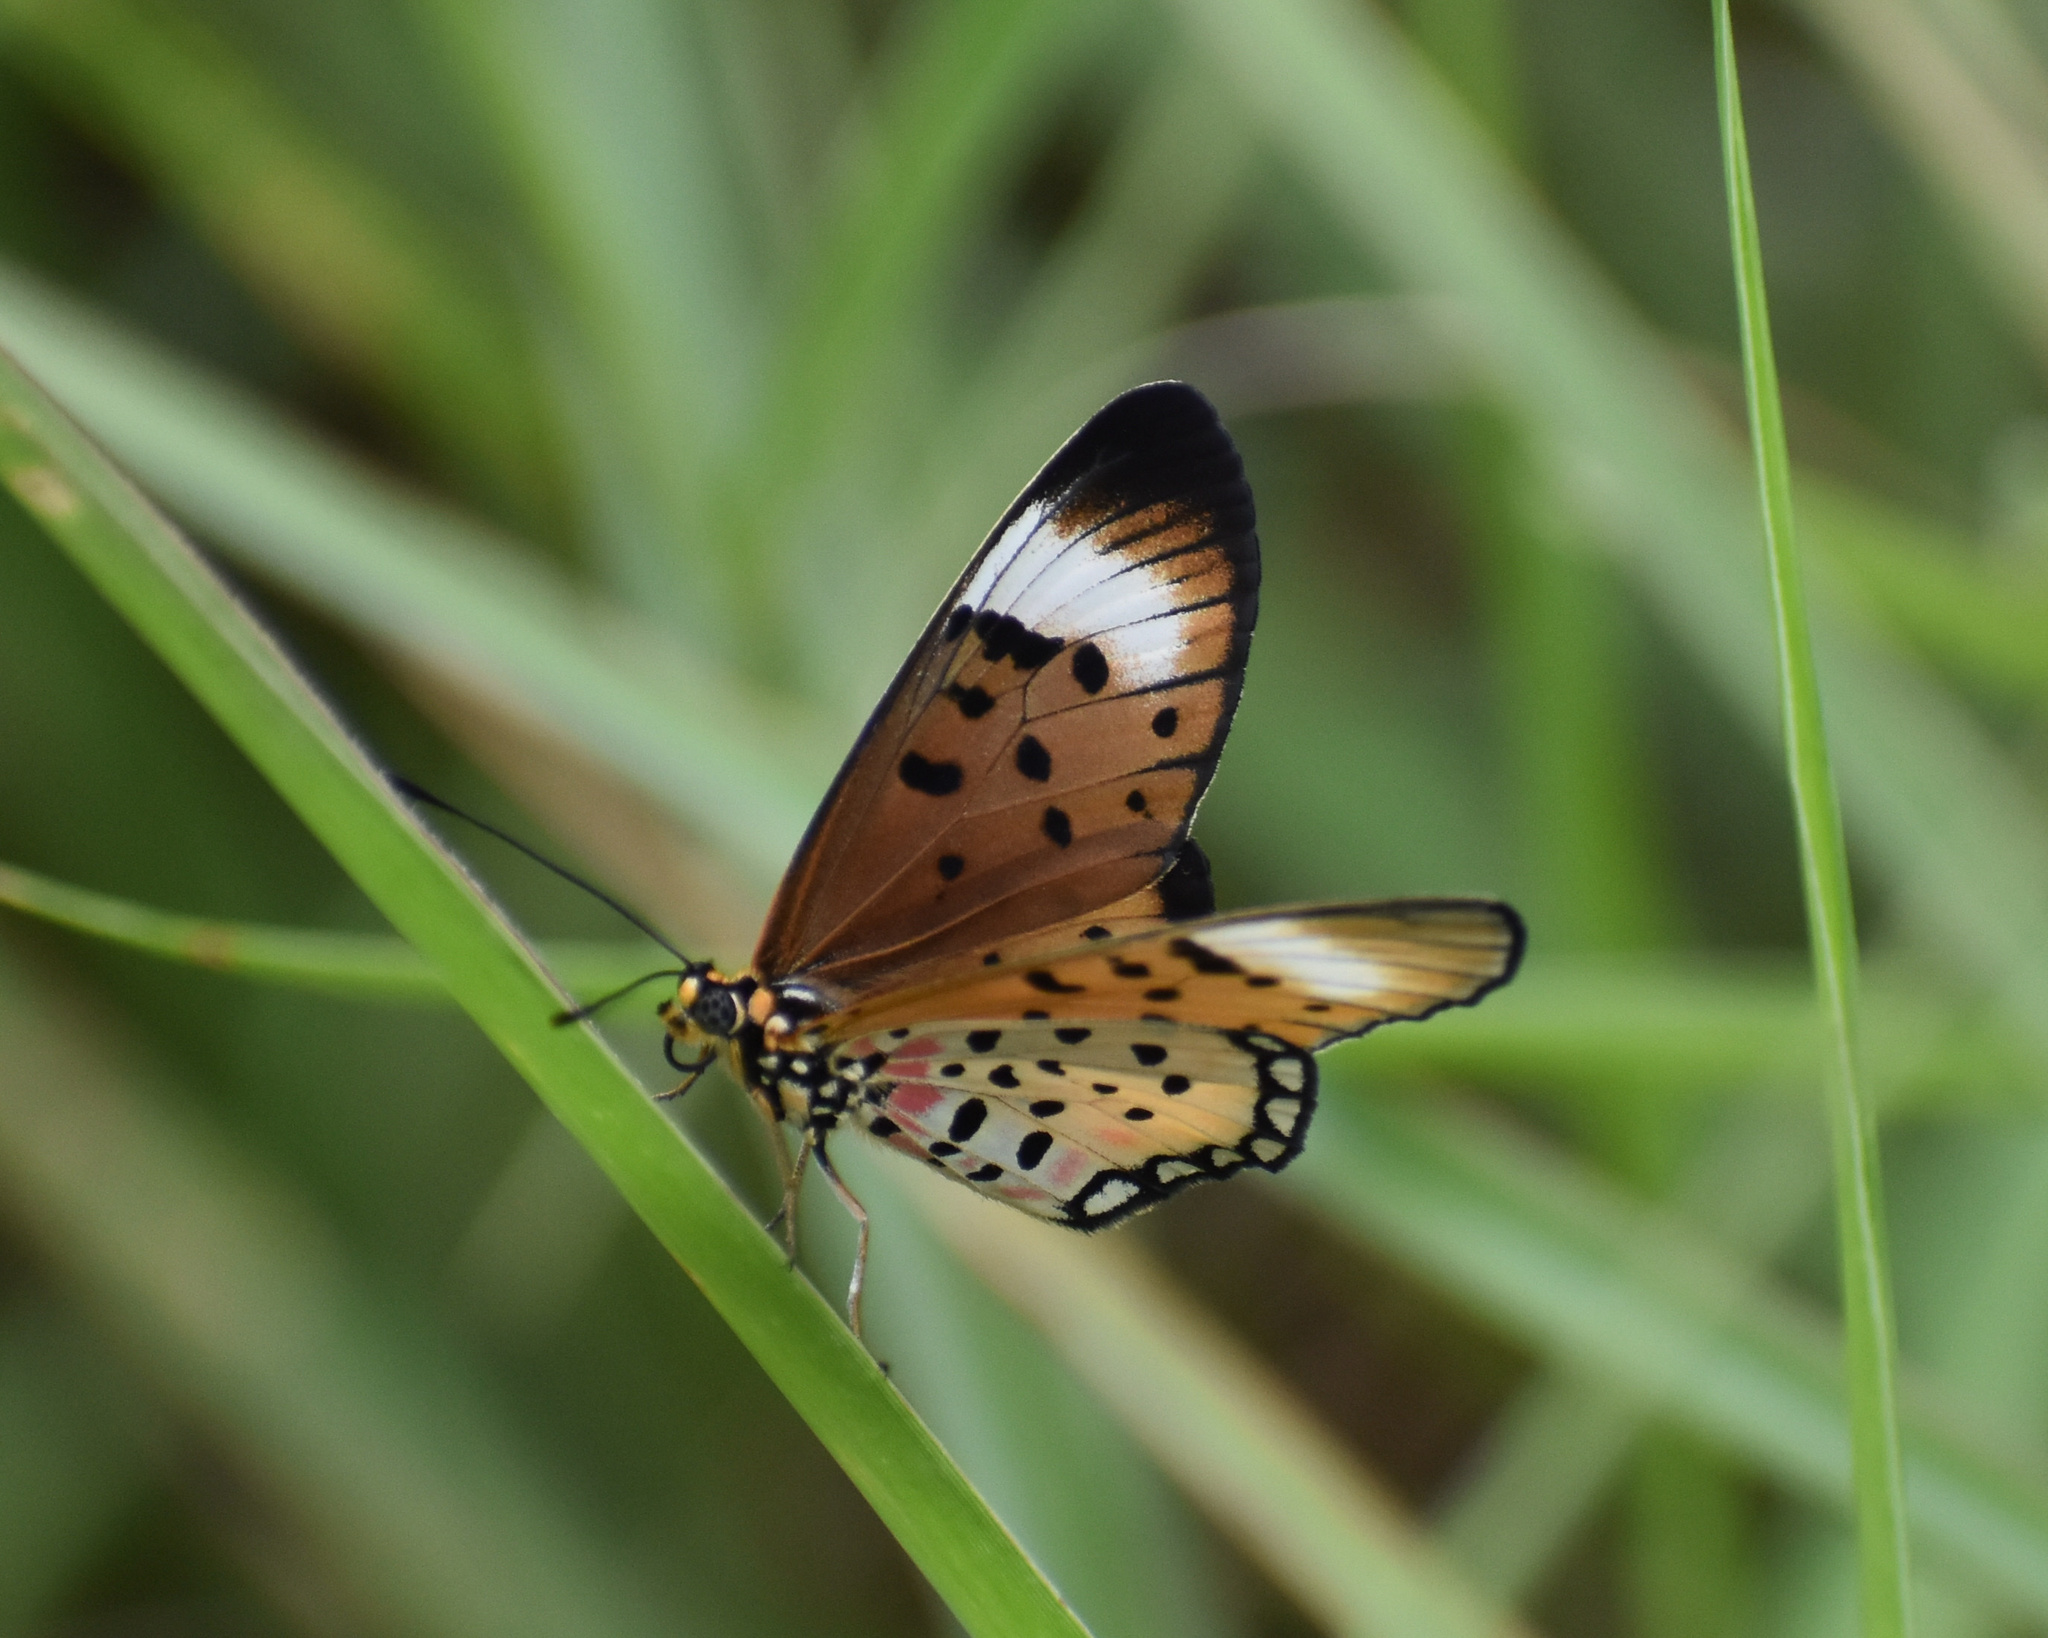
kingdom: Animalia
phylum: Arthropoda
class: Insecta
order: Lepidoptera
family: Nymphalidae
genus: Stephenia
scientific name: Stephenia
